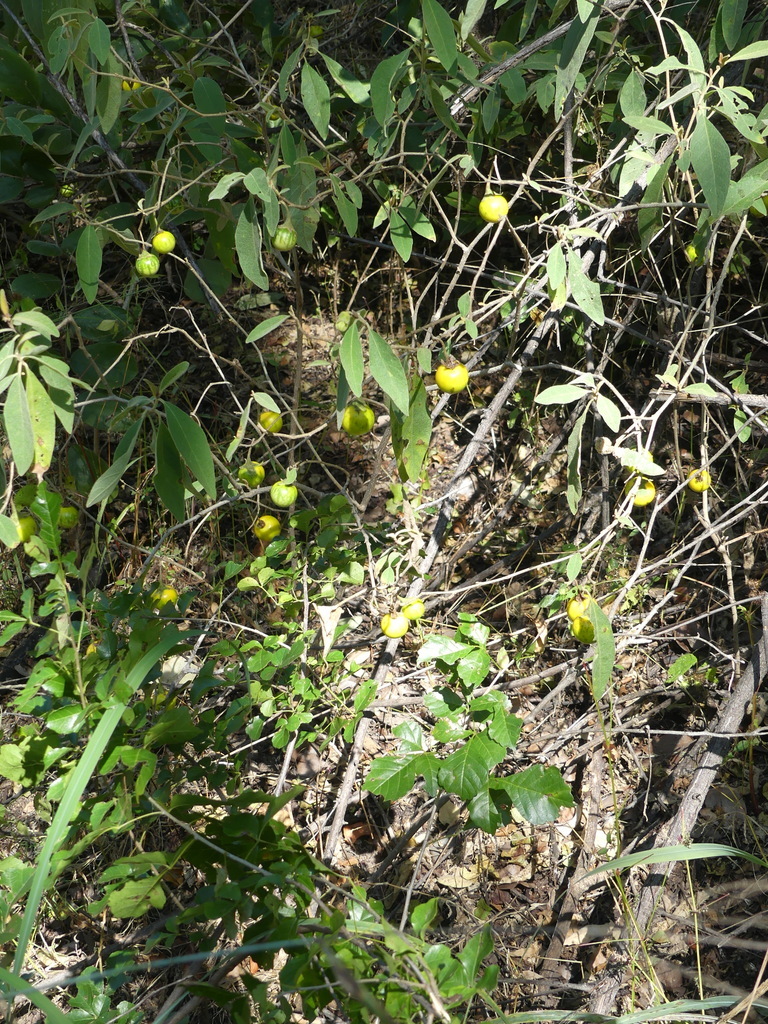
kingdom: Plantae
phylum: Tracheophyta
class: Magnoliopsida
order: Solanales
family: Solanaceae
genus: Solanum
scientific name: Solanum campylacanthum
